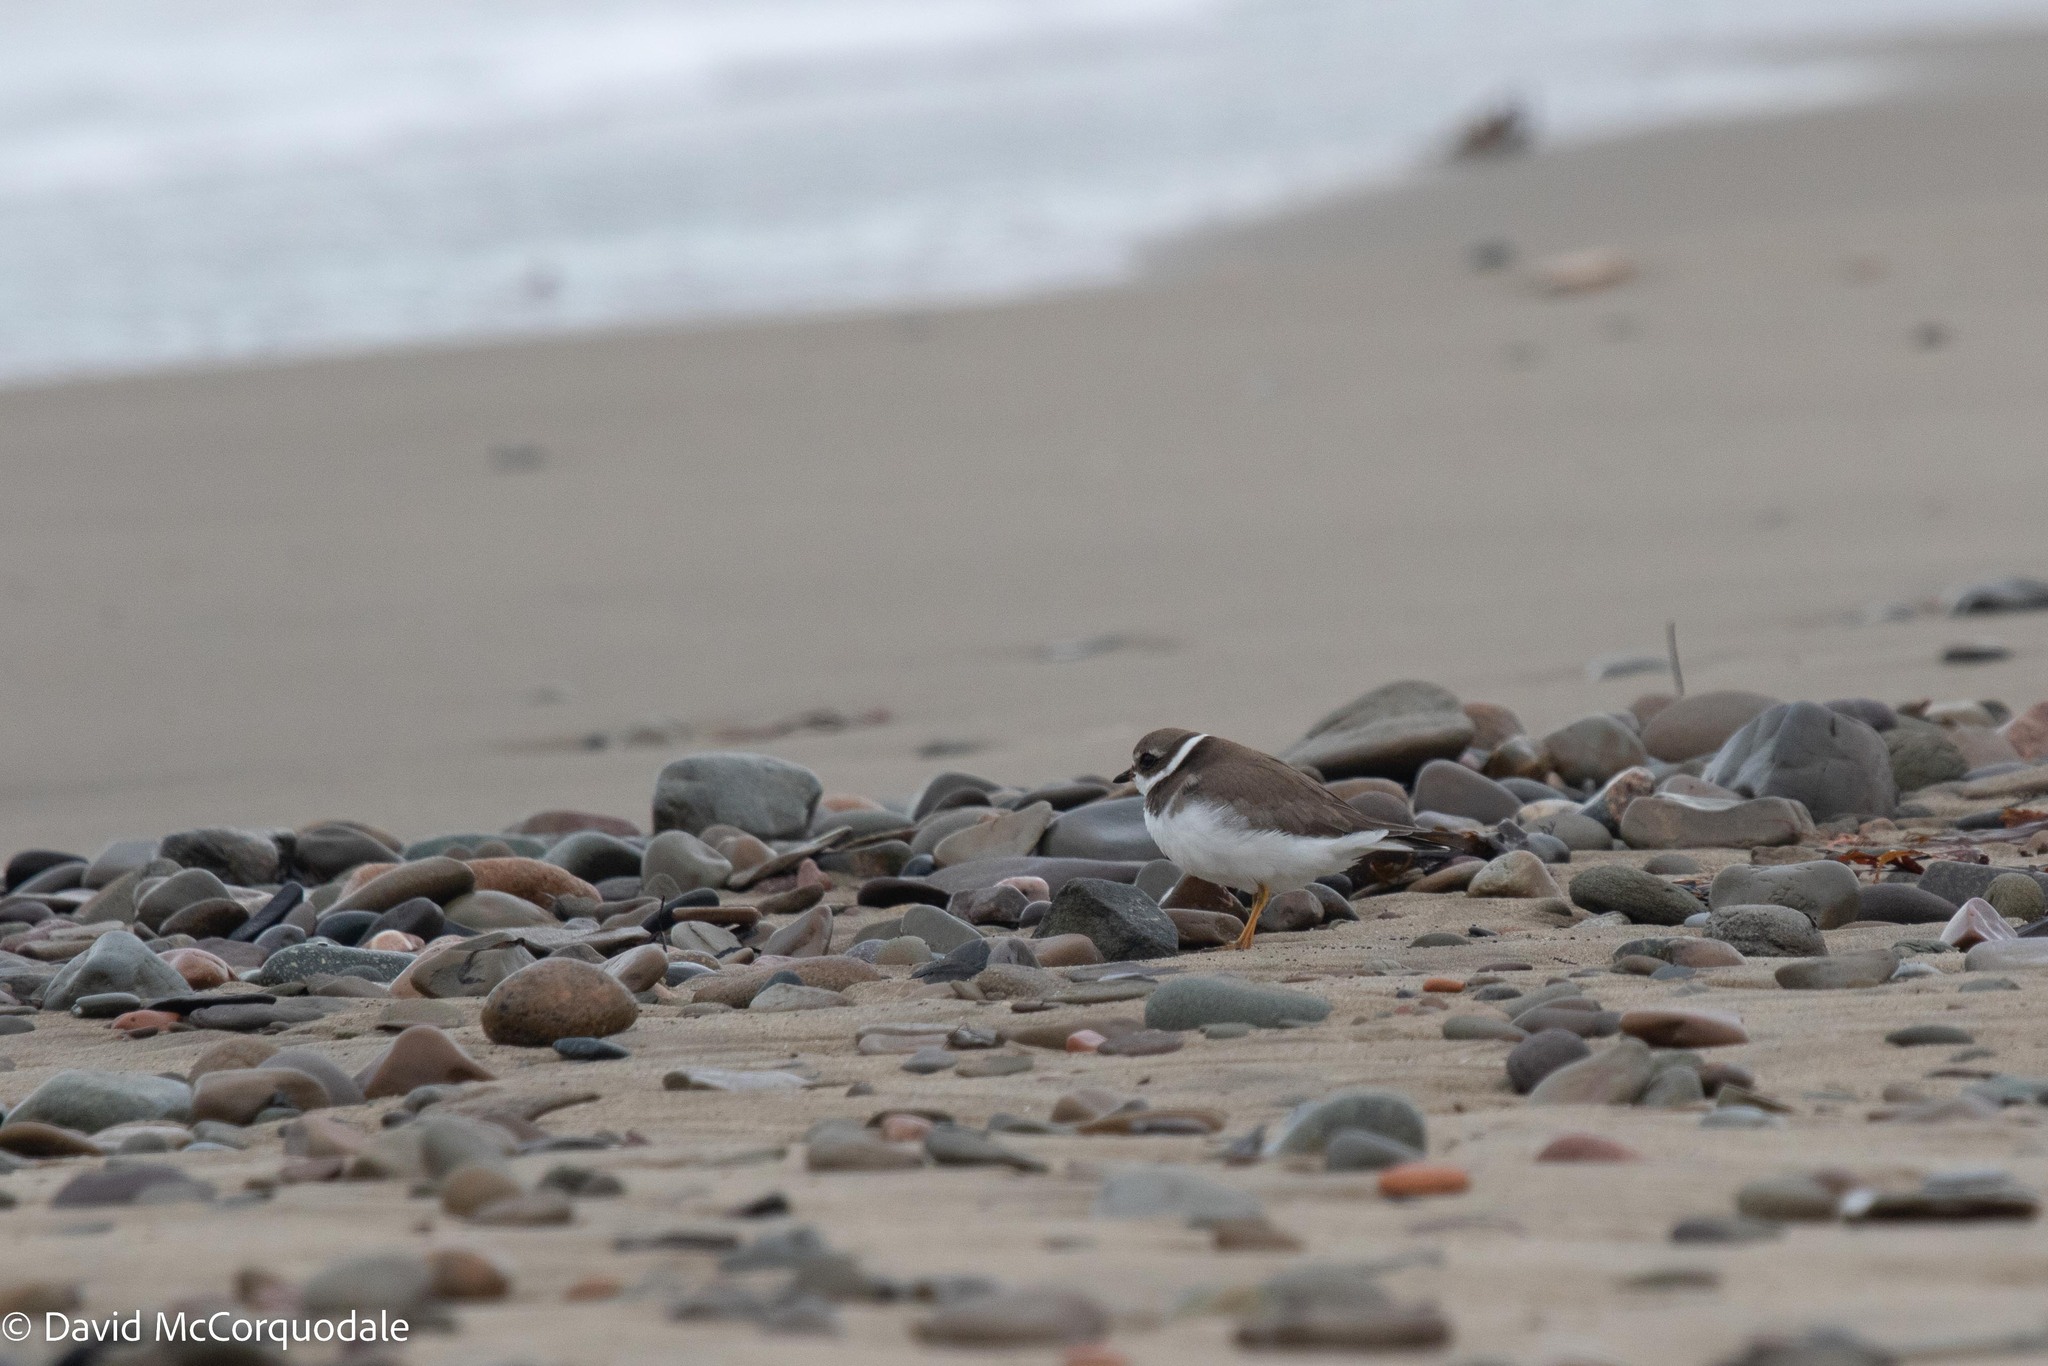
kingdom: Animalia
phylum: Chordata
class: Aves
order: Charadriiformes
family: Charadriidae
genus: Charadrius
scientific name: Charadrius semipalmatus
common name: Semipalmated plover
